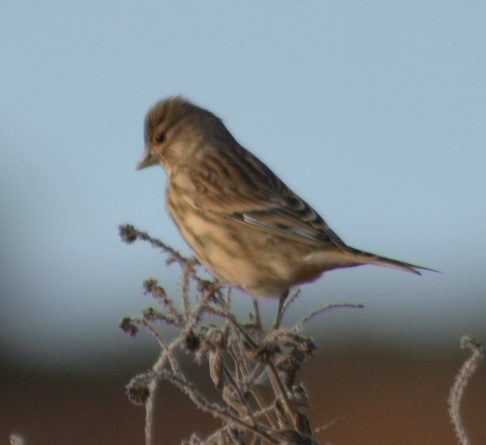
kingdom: Animalia
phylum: Chordata
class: Aves
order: Passeriformes
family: Fringillidae
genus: Linaria
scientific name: Linaria cannabina
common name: Common linnet
